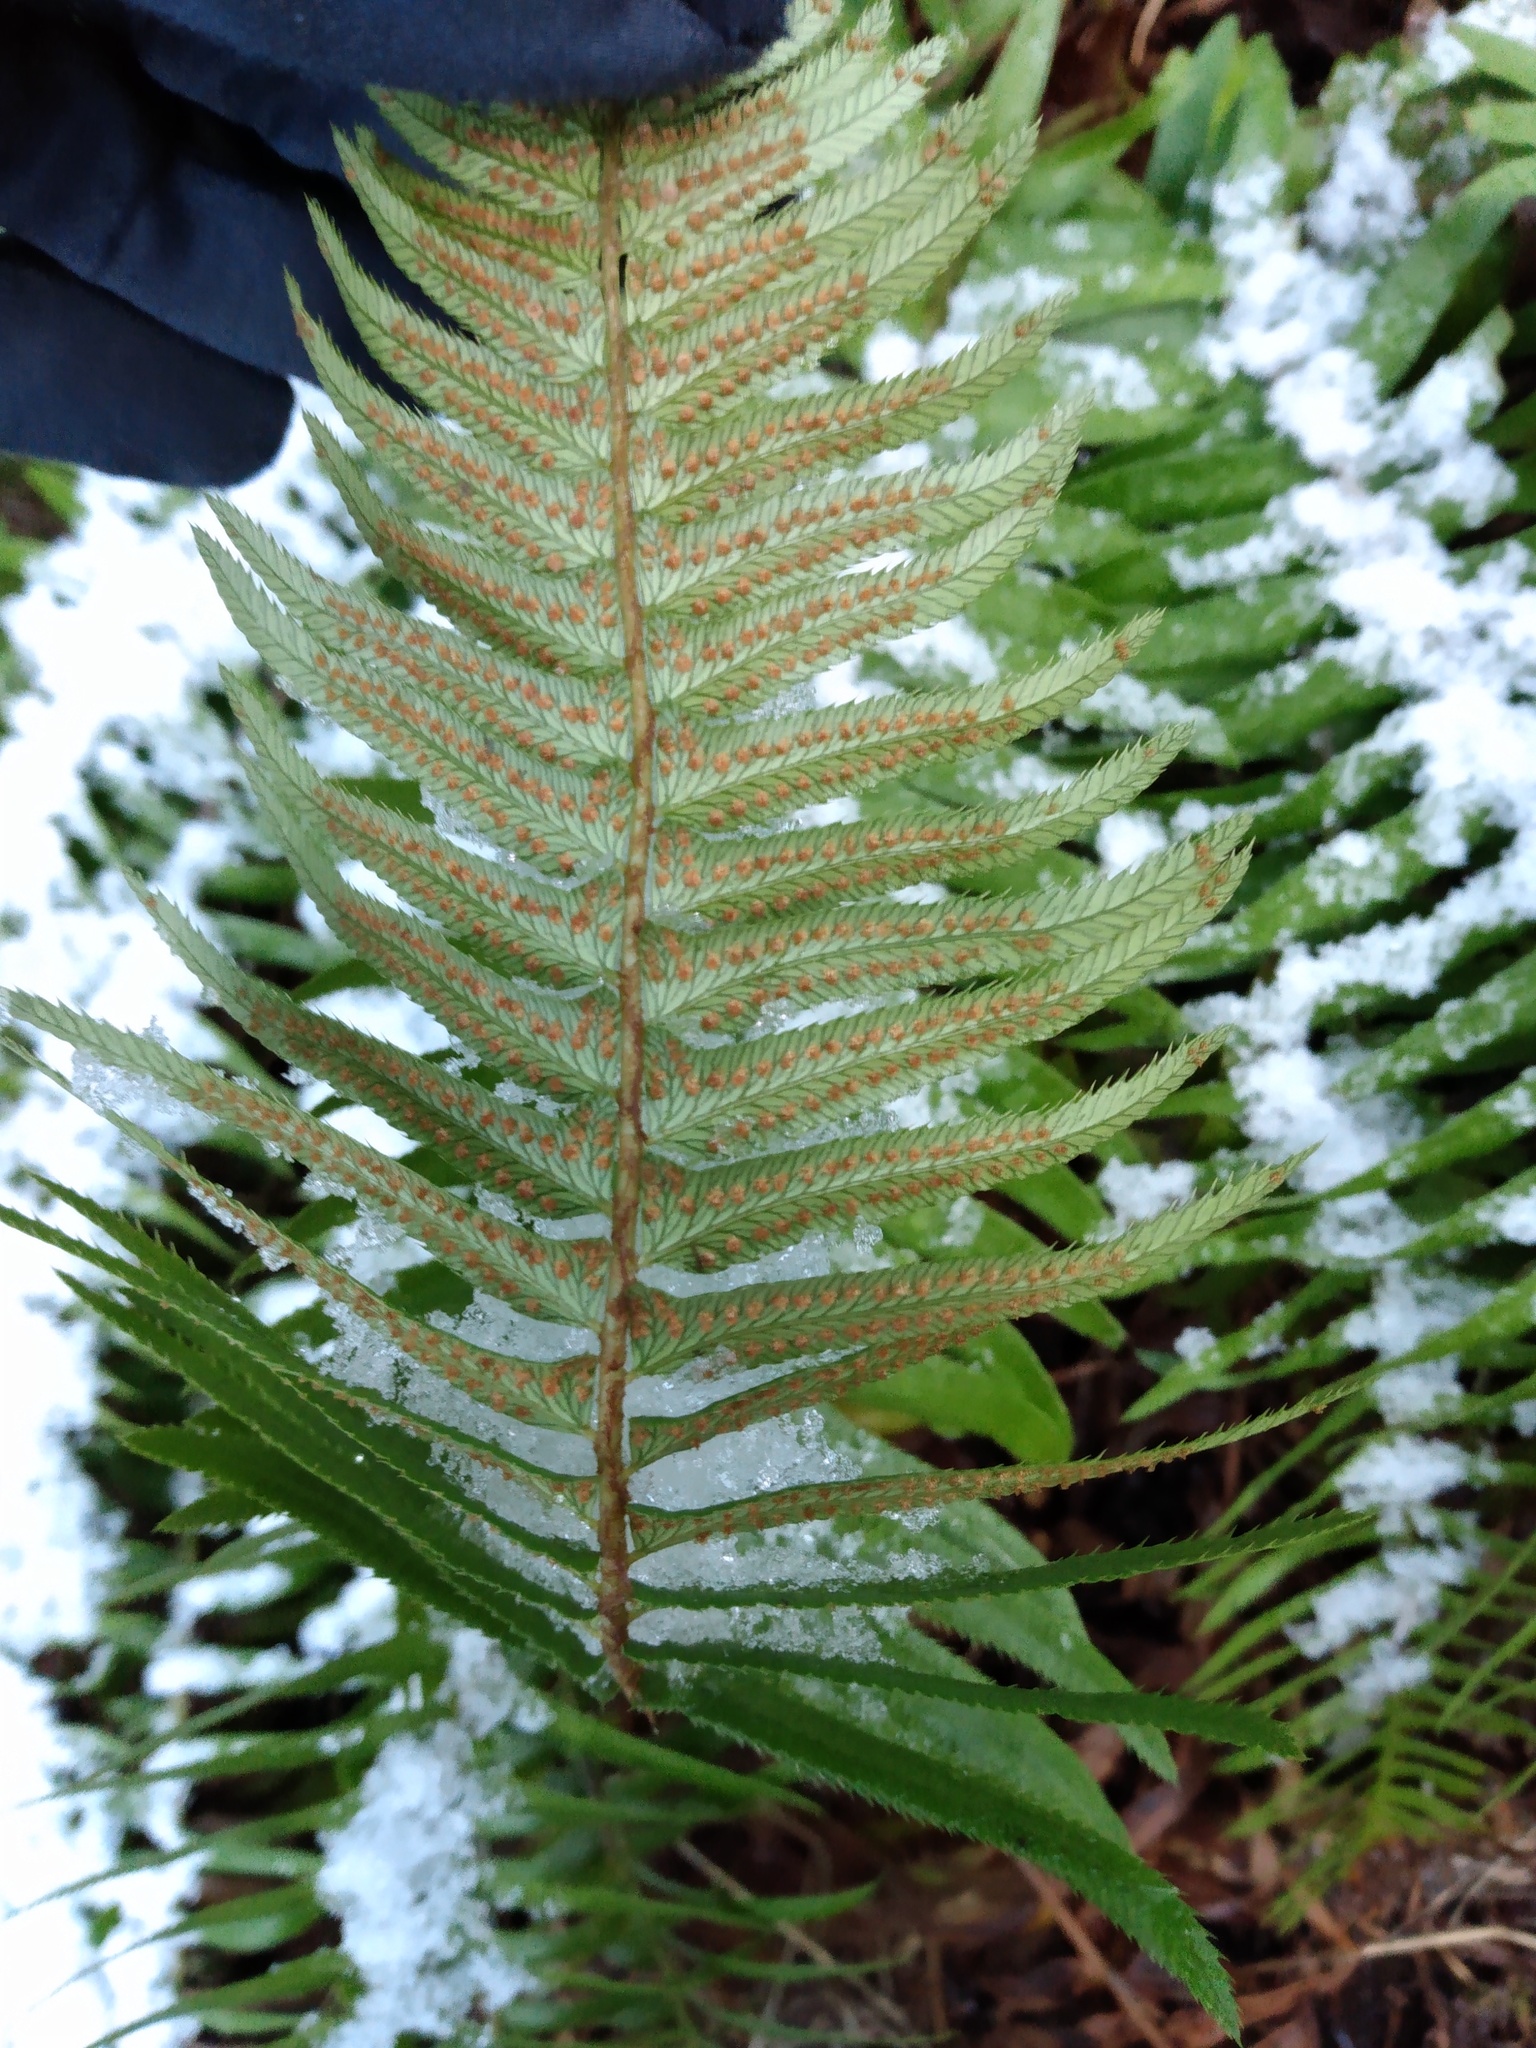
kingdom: Plantae
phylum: Tracheophyta
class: Polypodiopsida
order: Polypodiales
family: Dryopteridaceae
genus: Polystichum
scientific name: Polystichum munitum
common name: Western sword-fern
